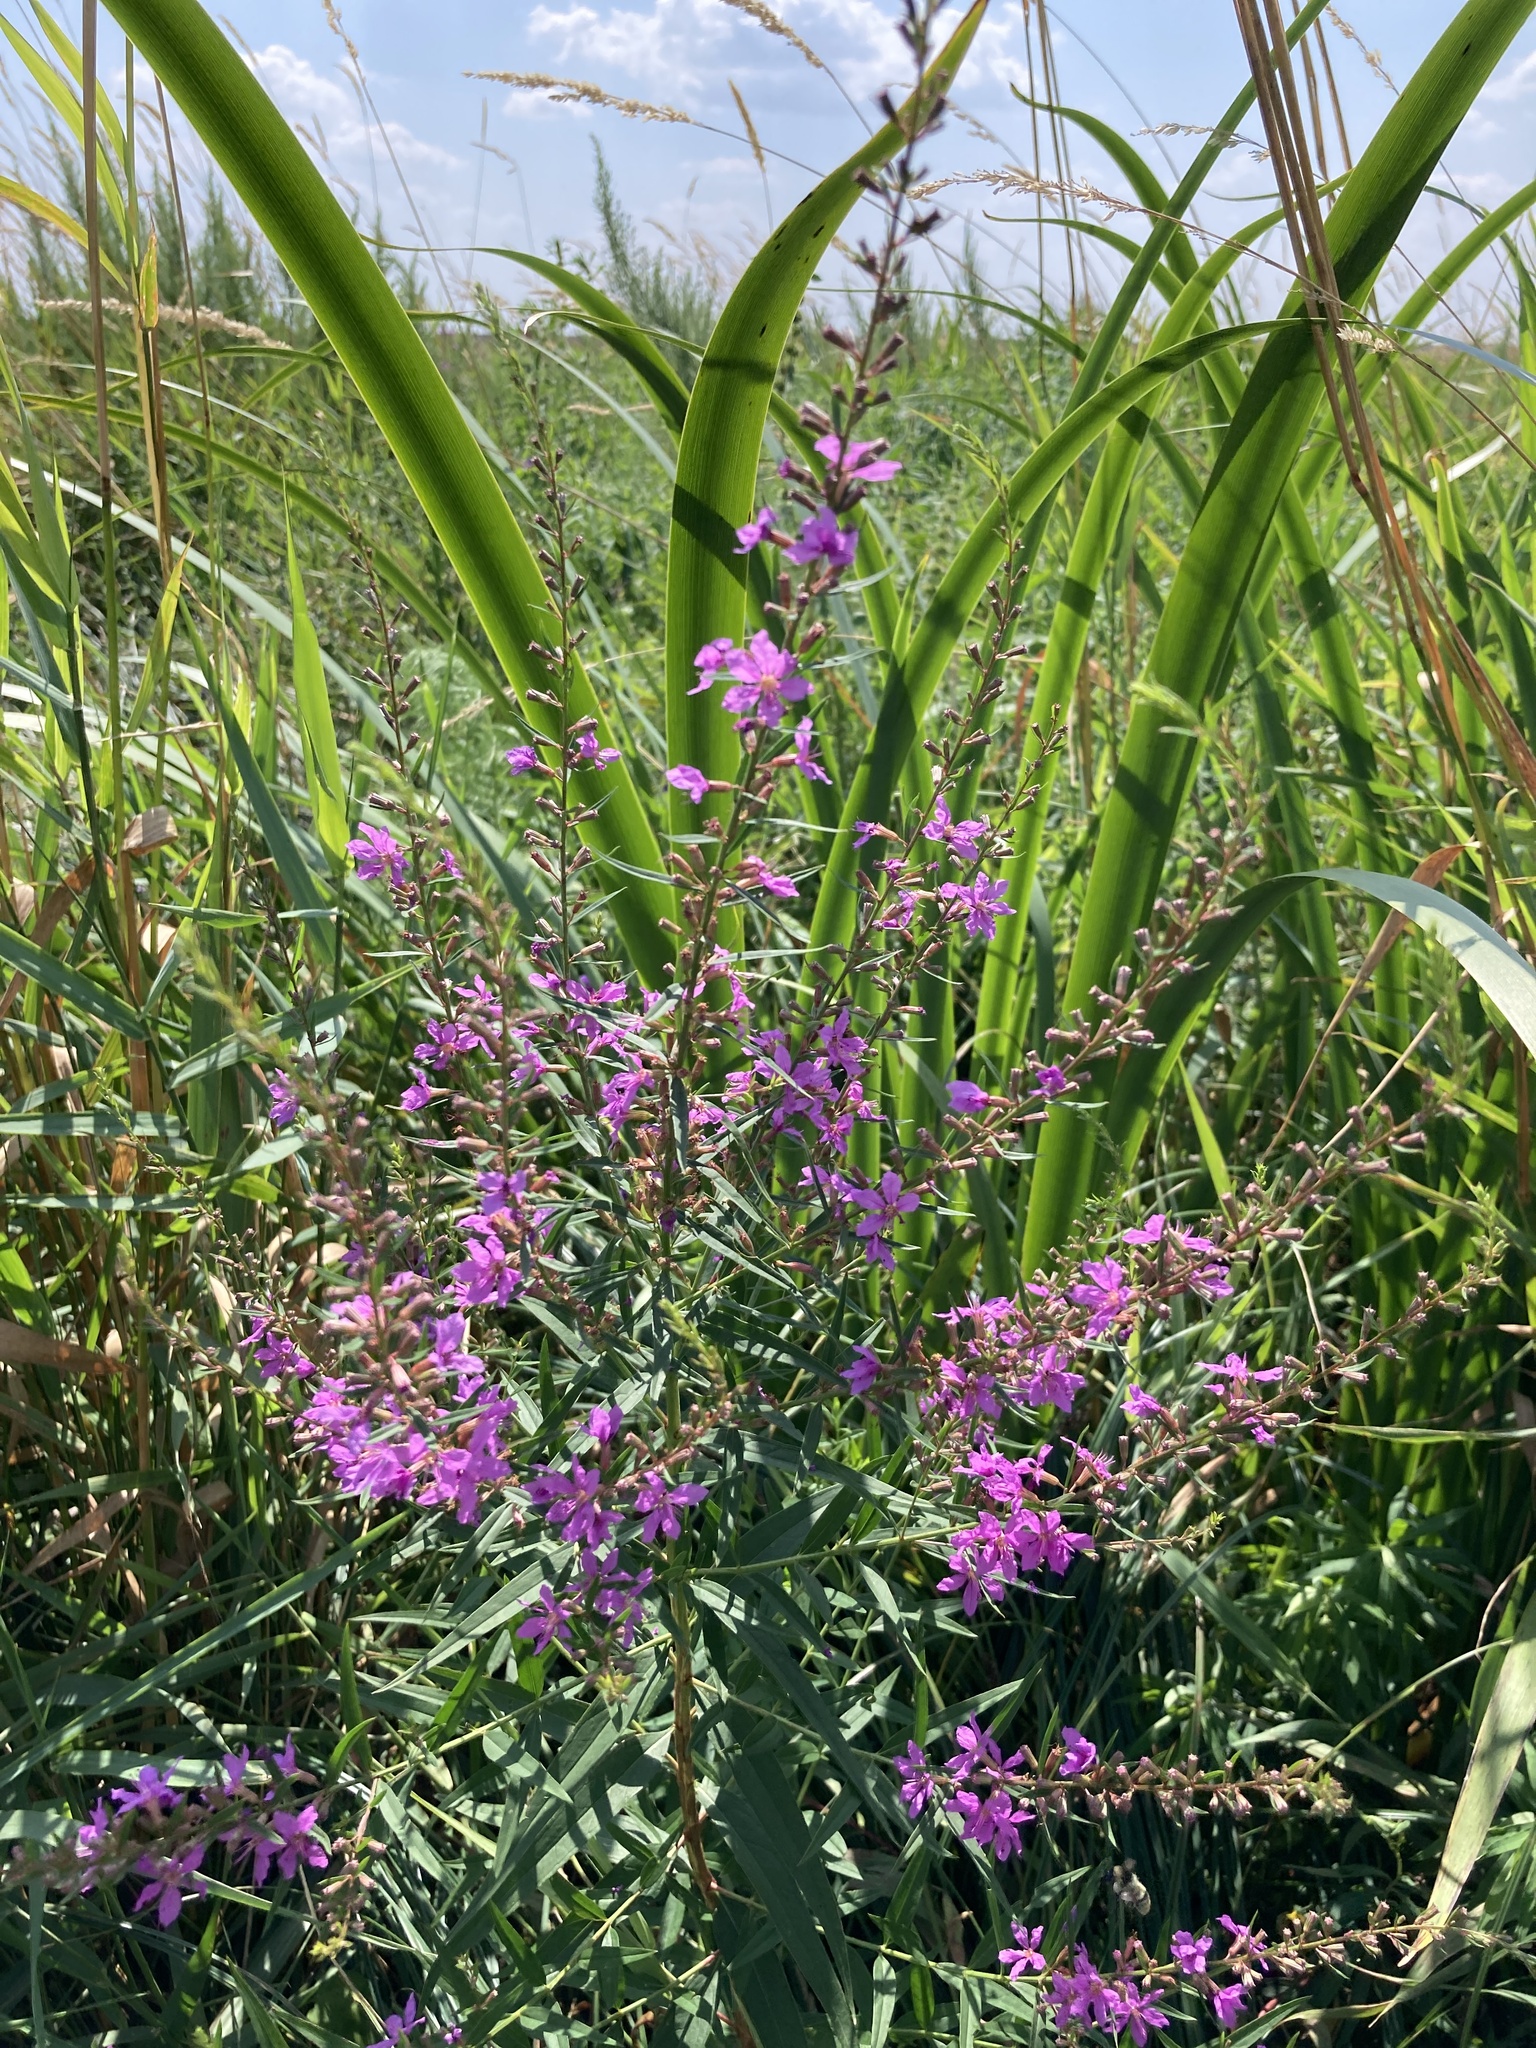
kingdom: Plantae
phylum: Tracheophyta
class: Magnoliopsida
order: Myrtales
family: Lythraceae
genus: Lythrum
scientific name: Lythrum virgatum
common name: European wand loosestrife
